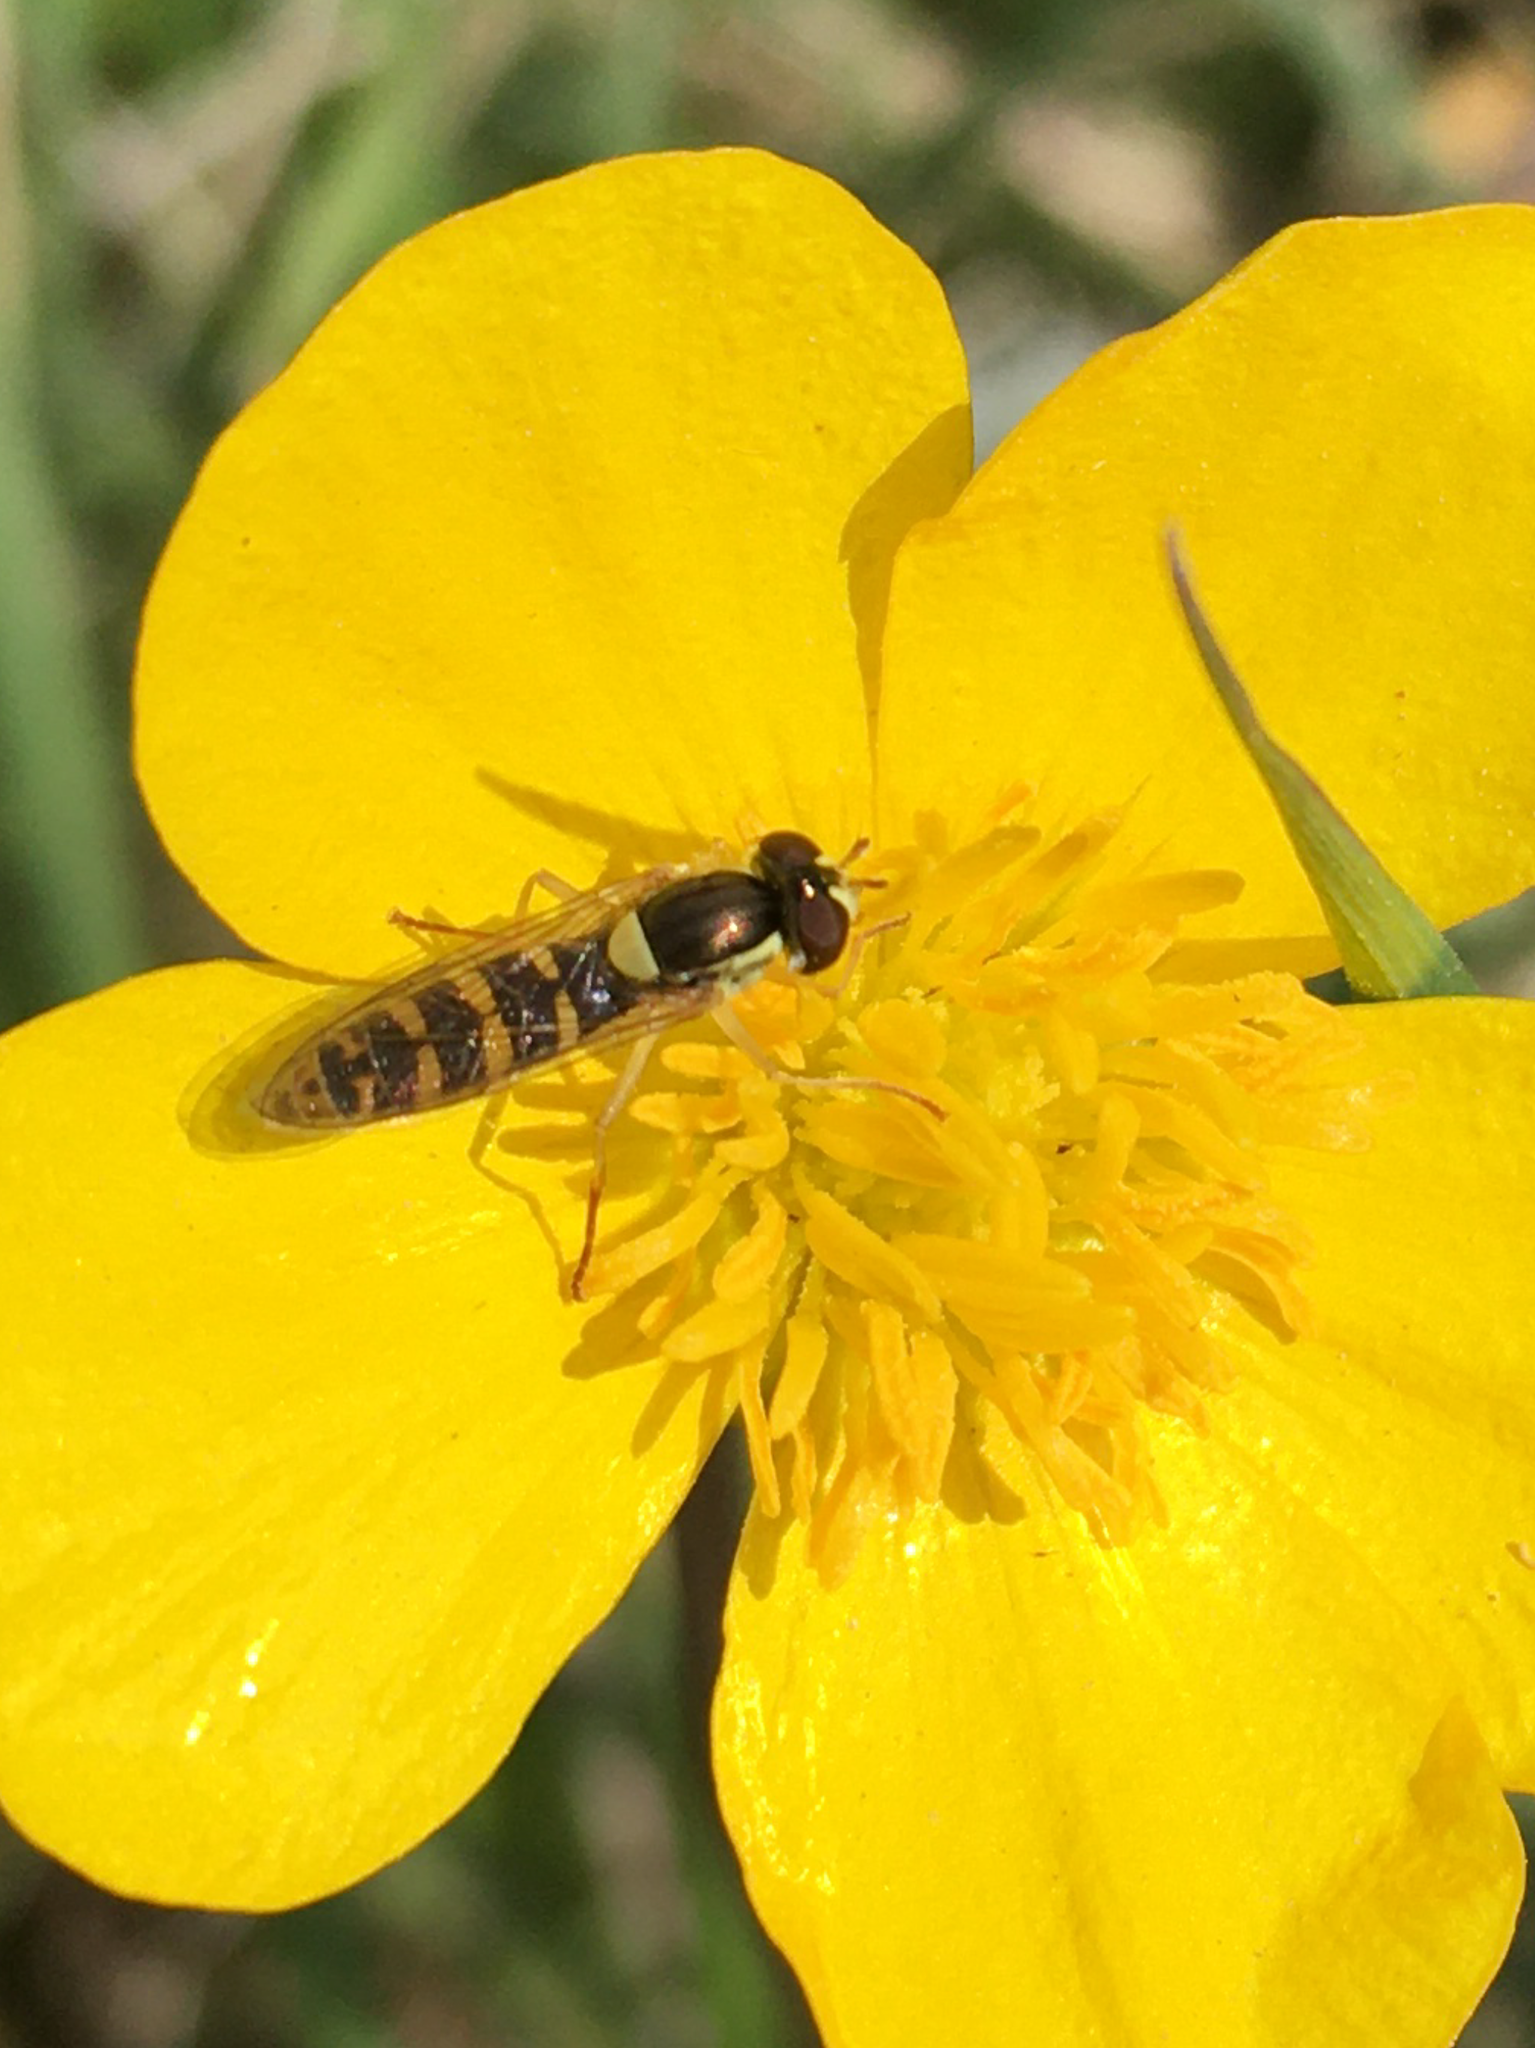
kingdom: Animalia
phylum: Arthropoda
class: Insecta
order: Diptera
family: Syrphidae
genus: Sphaerophoria
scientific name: Sphaerophoria
